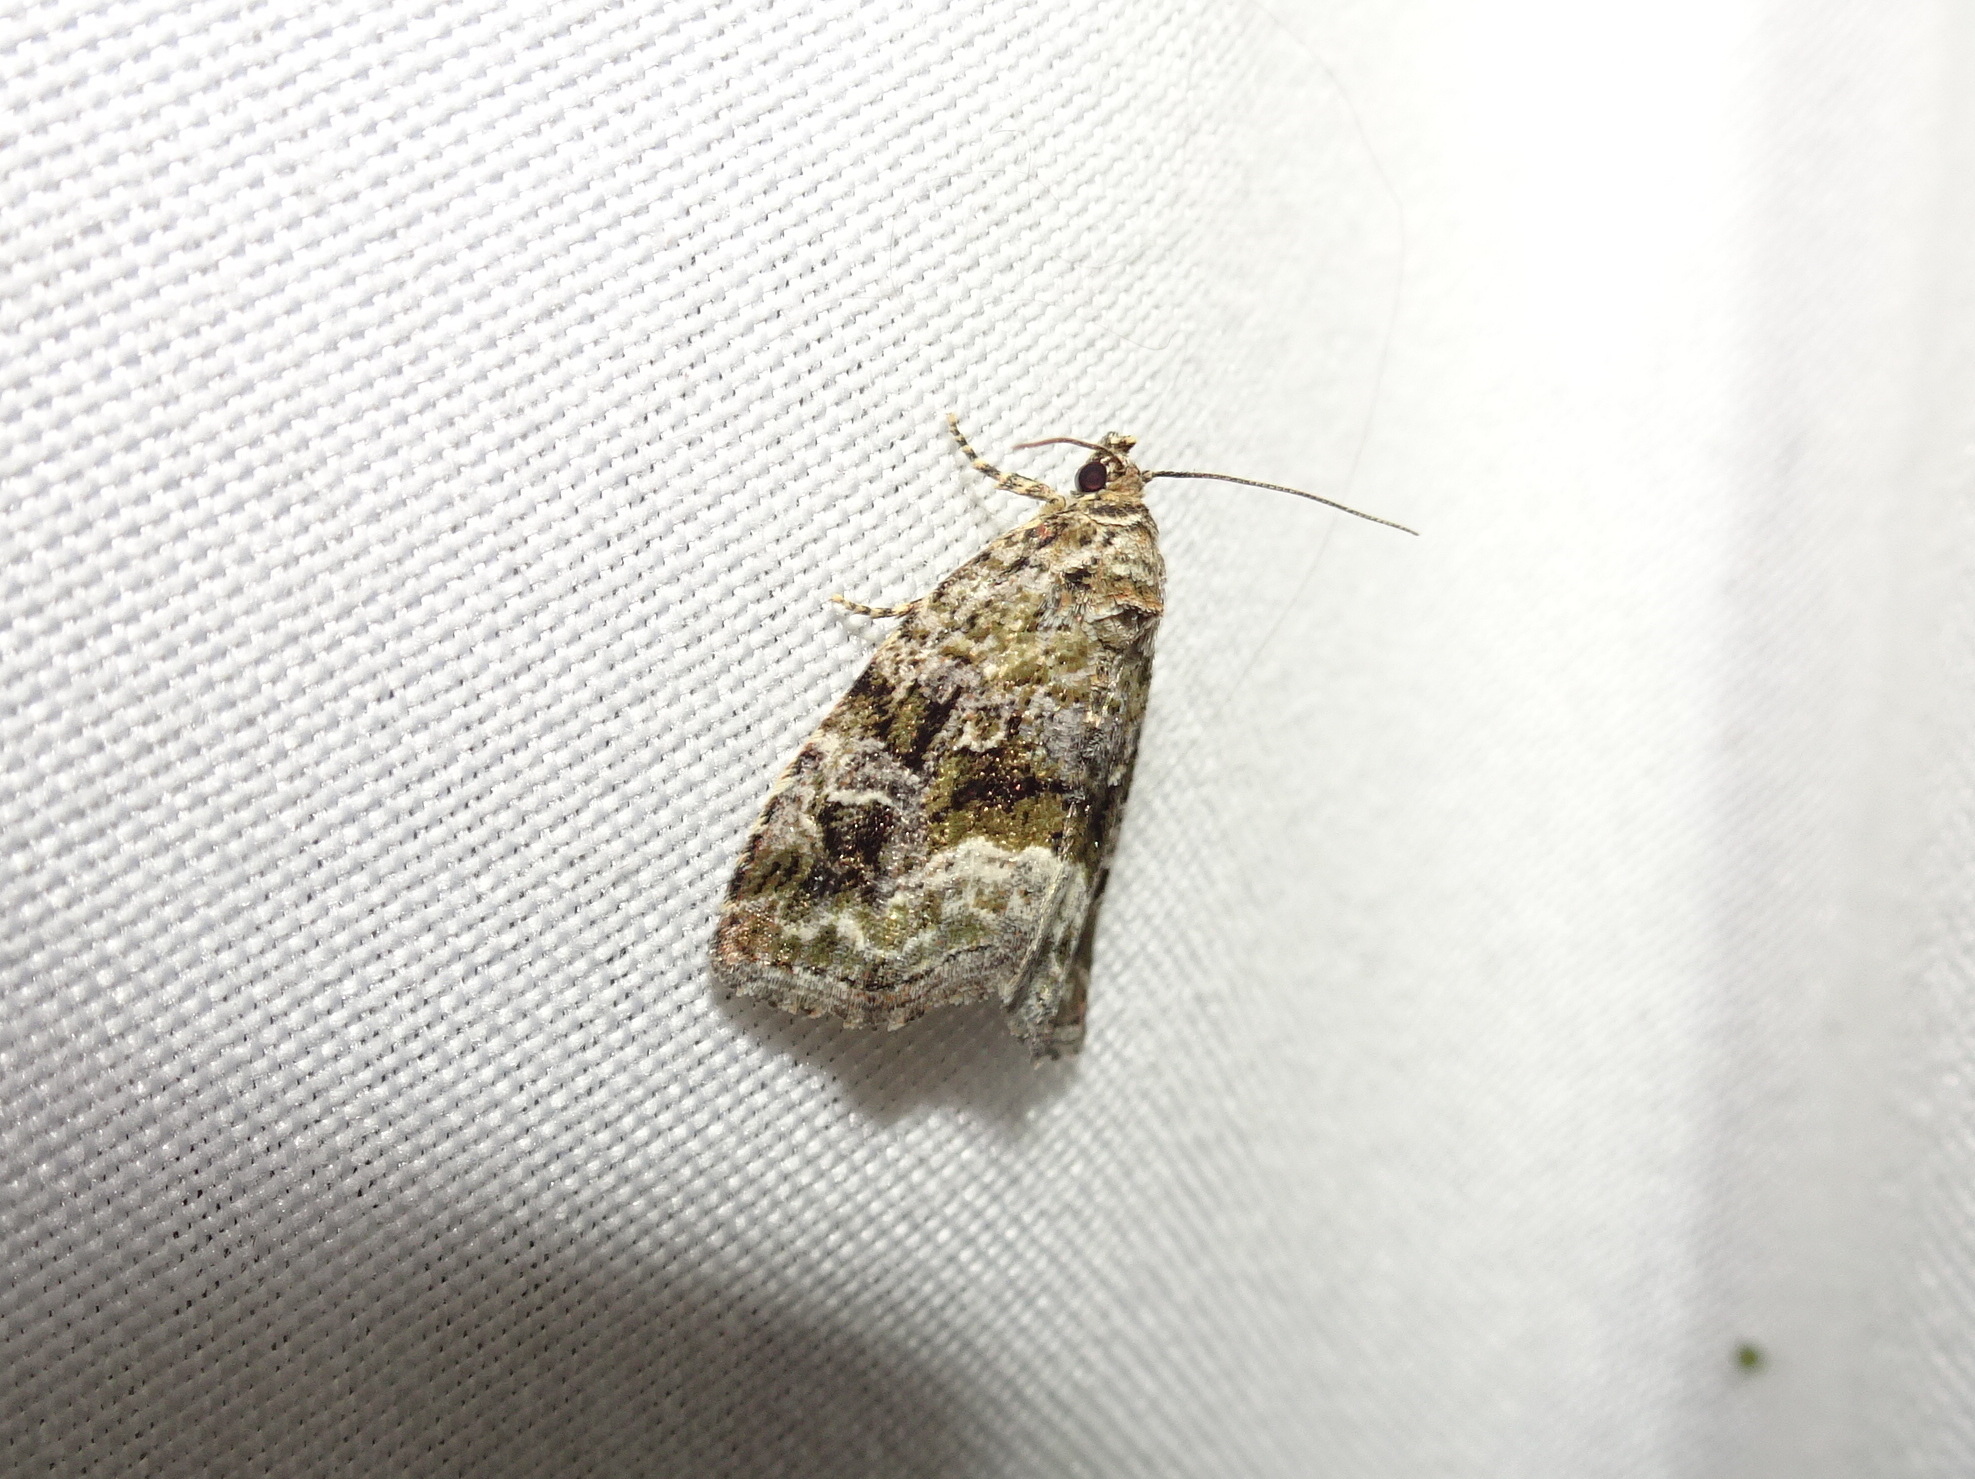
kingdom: Animalia
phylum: Arthropoda
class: Insecta
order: Lepidoptera
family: Noctuidae
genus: Protodeltote
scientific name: Protodeltote muscosula
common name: Large mossy glyph
